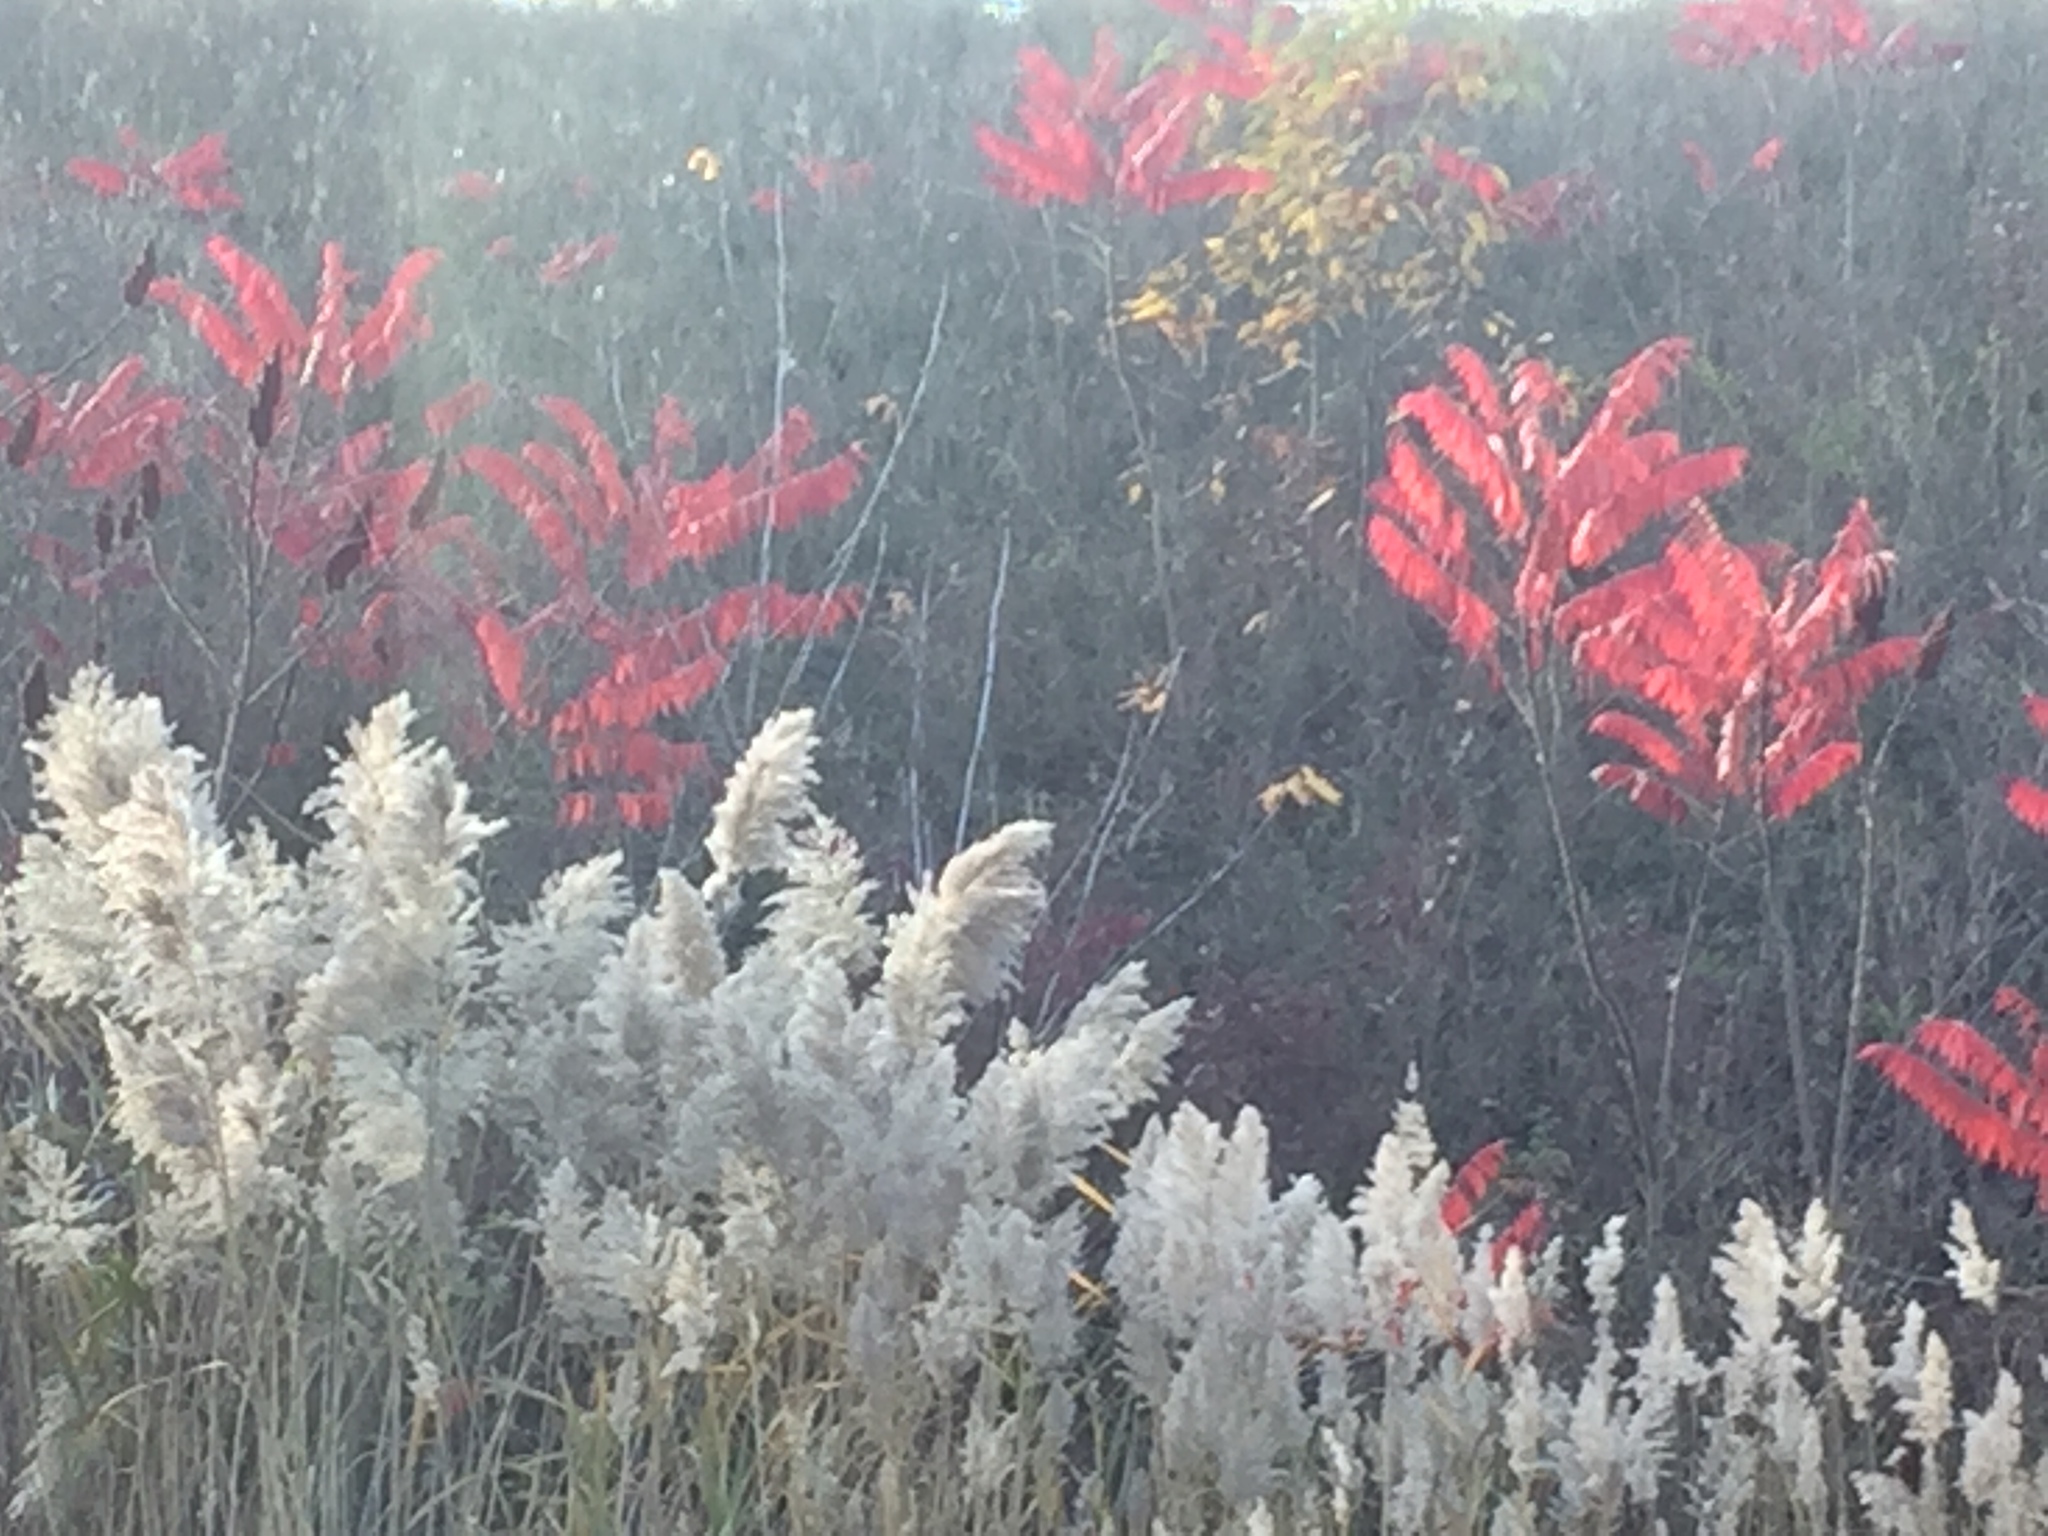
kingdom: Plantae
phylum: Tracheophyta
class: Liliopsida
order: Poales
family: Poaceae
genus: Phragmites
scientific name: Phragmites australis
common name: Common reed
